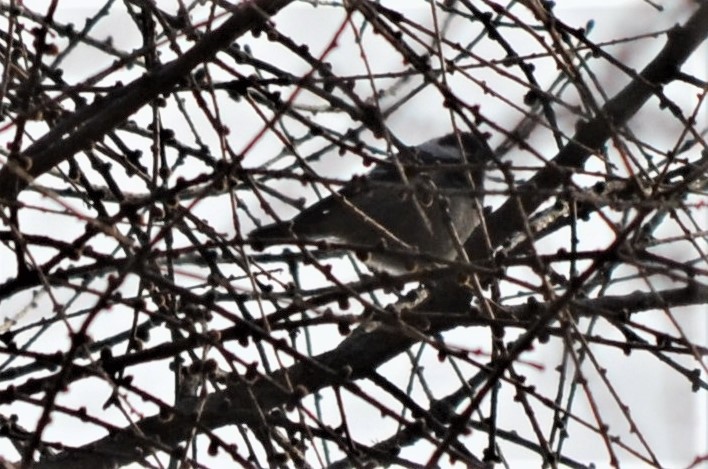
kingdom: Animalia
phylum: Chordata
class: Aves
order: Passeriformes
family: Paridae
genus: Periparus
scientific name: Periparus ater
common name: Coal tit
